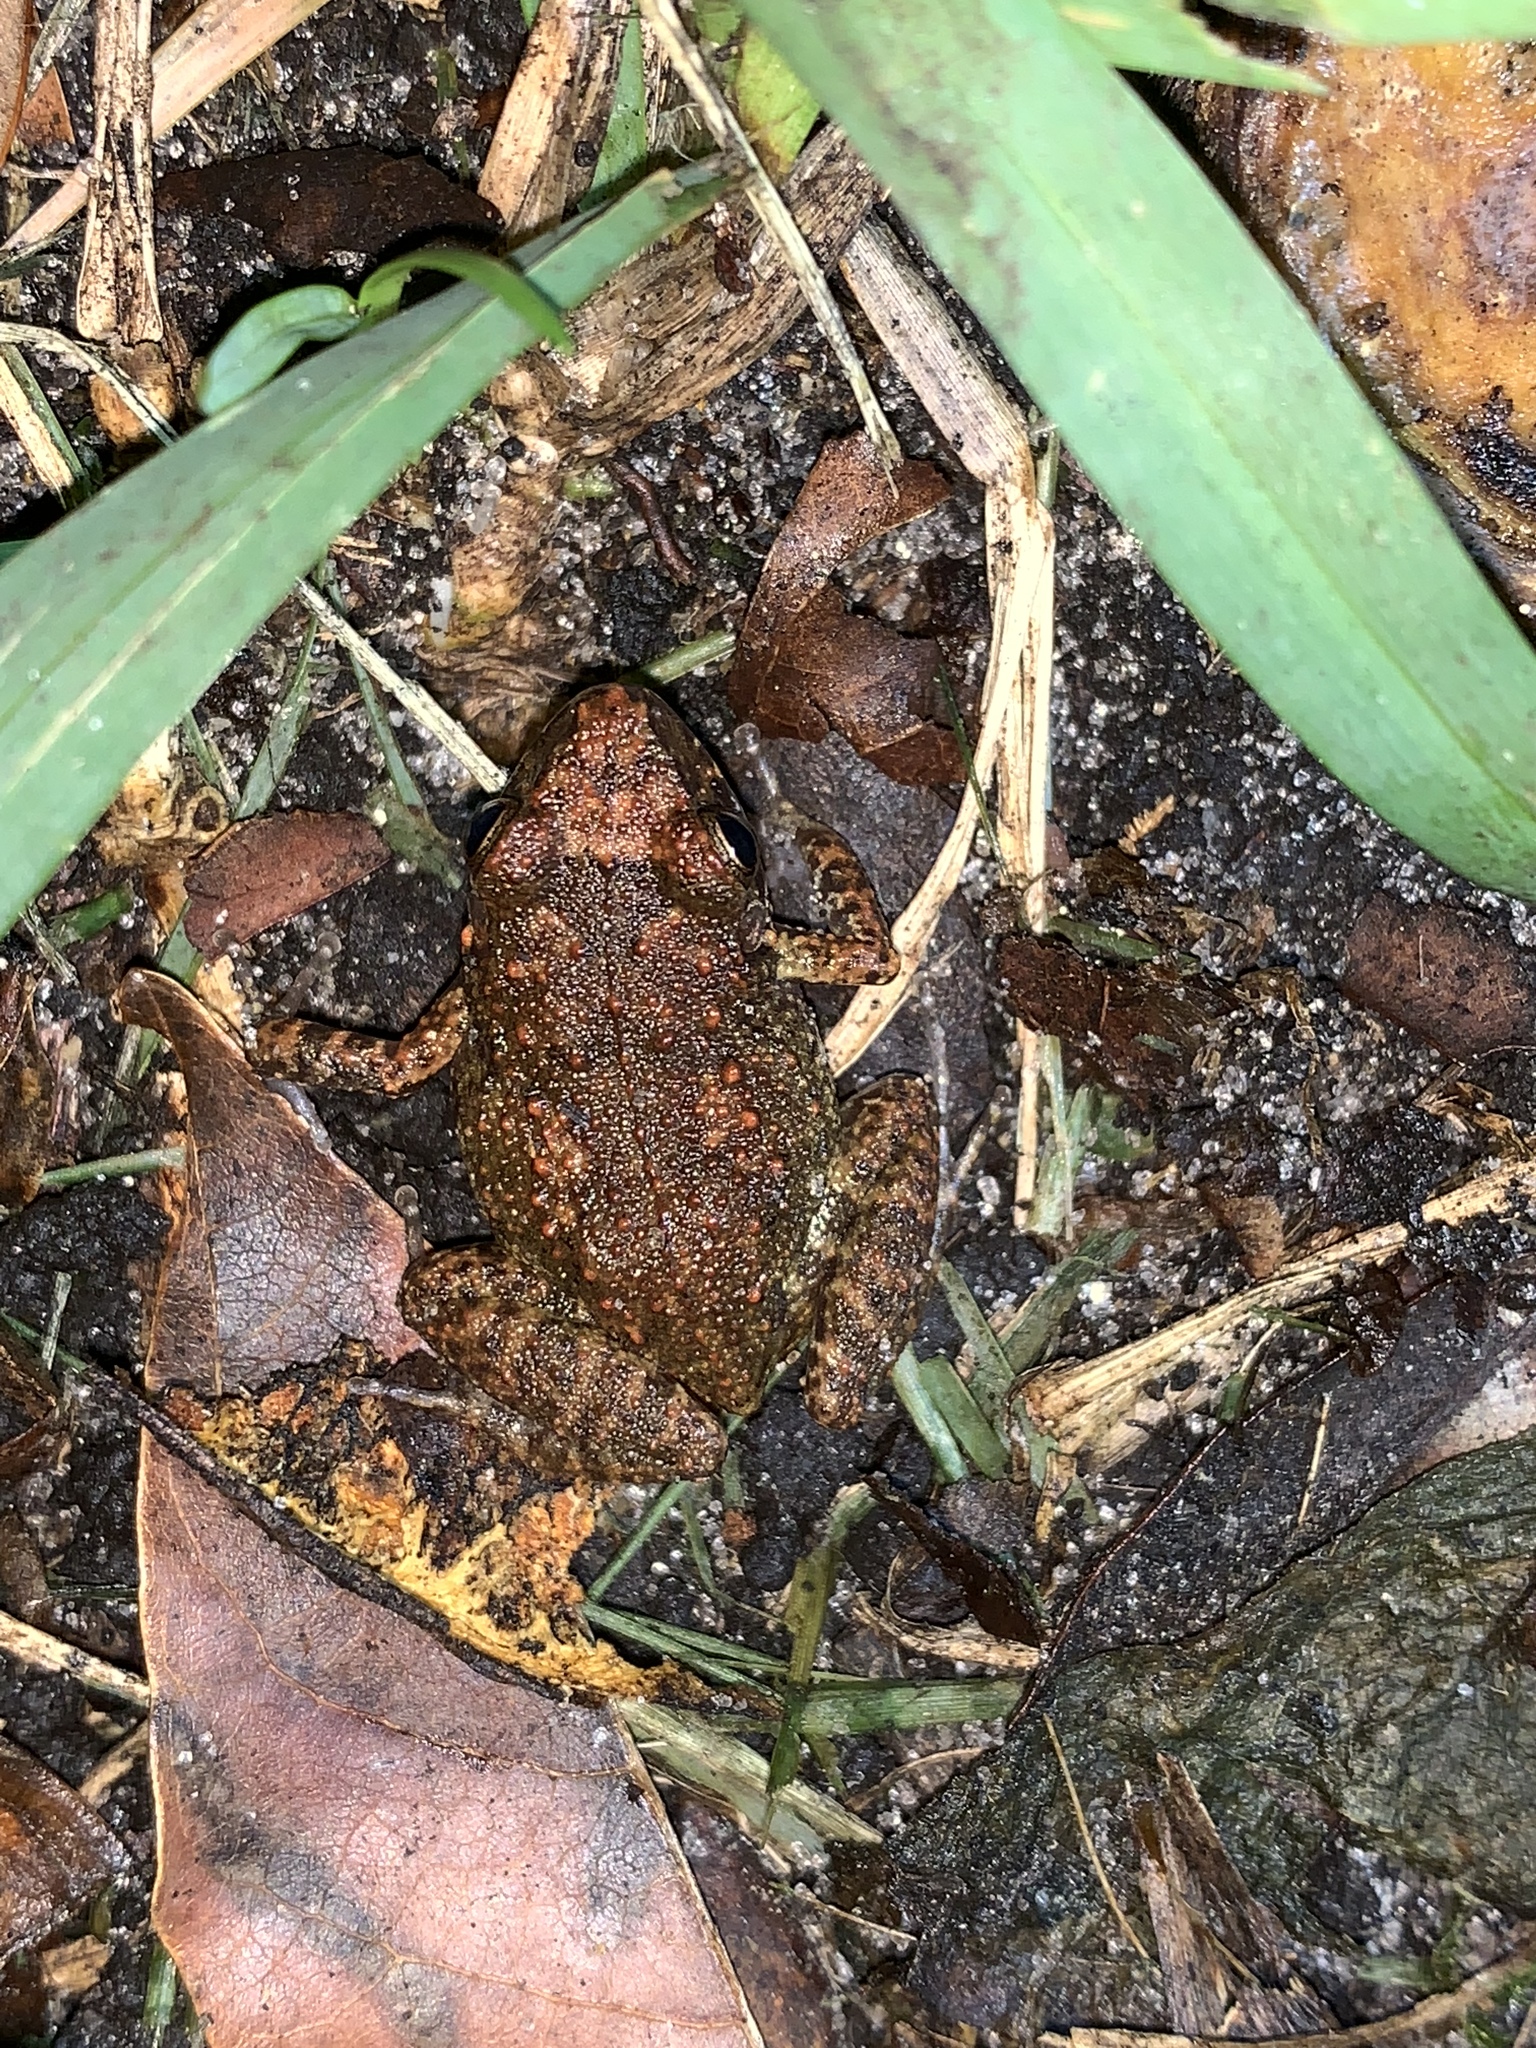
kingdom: Animalia
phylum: Chordata
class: Amphibia
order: Anura
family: Eleutherodactylidae
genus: Eleutherodactylus
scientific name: Eleutherodactylus planirostris
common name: Greenhouse frog
